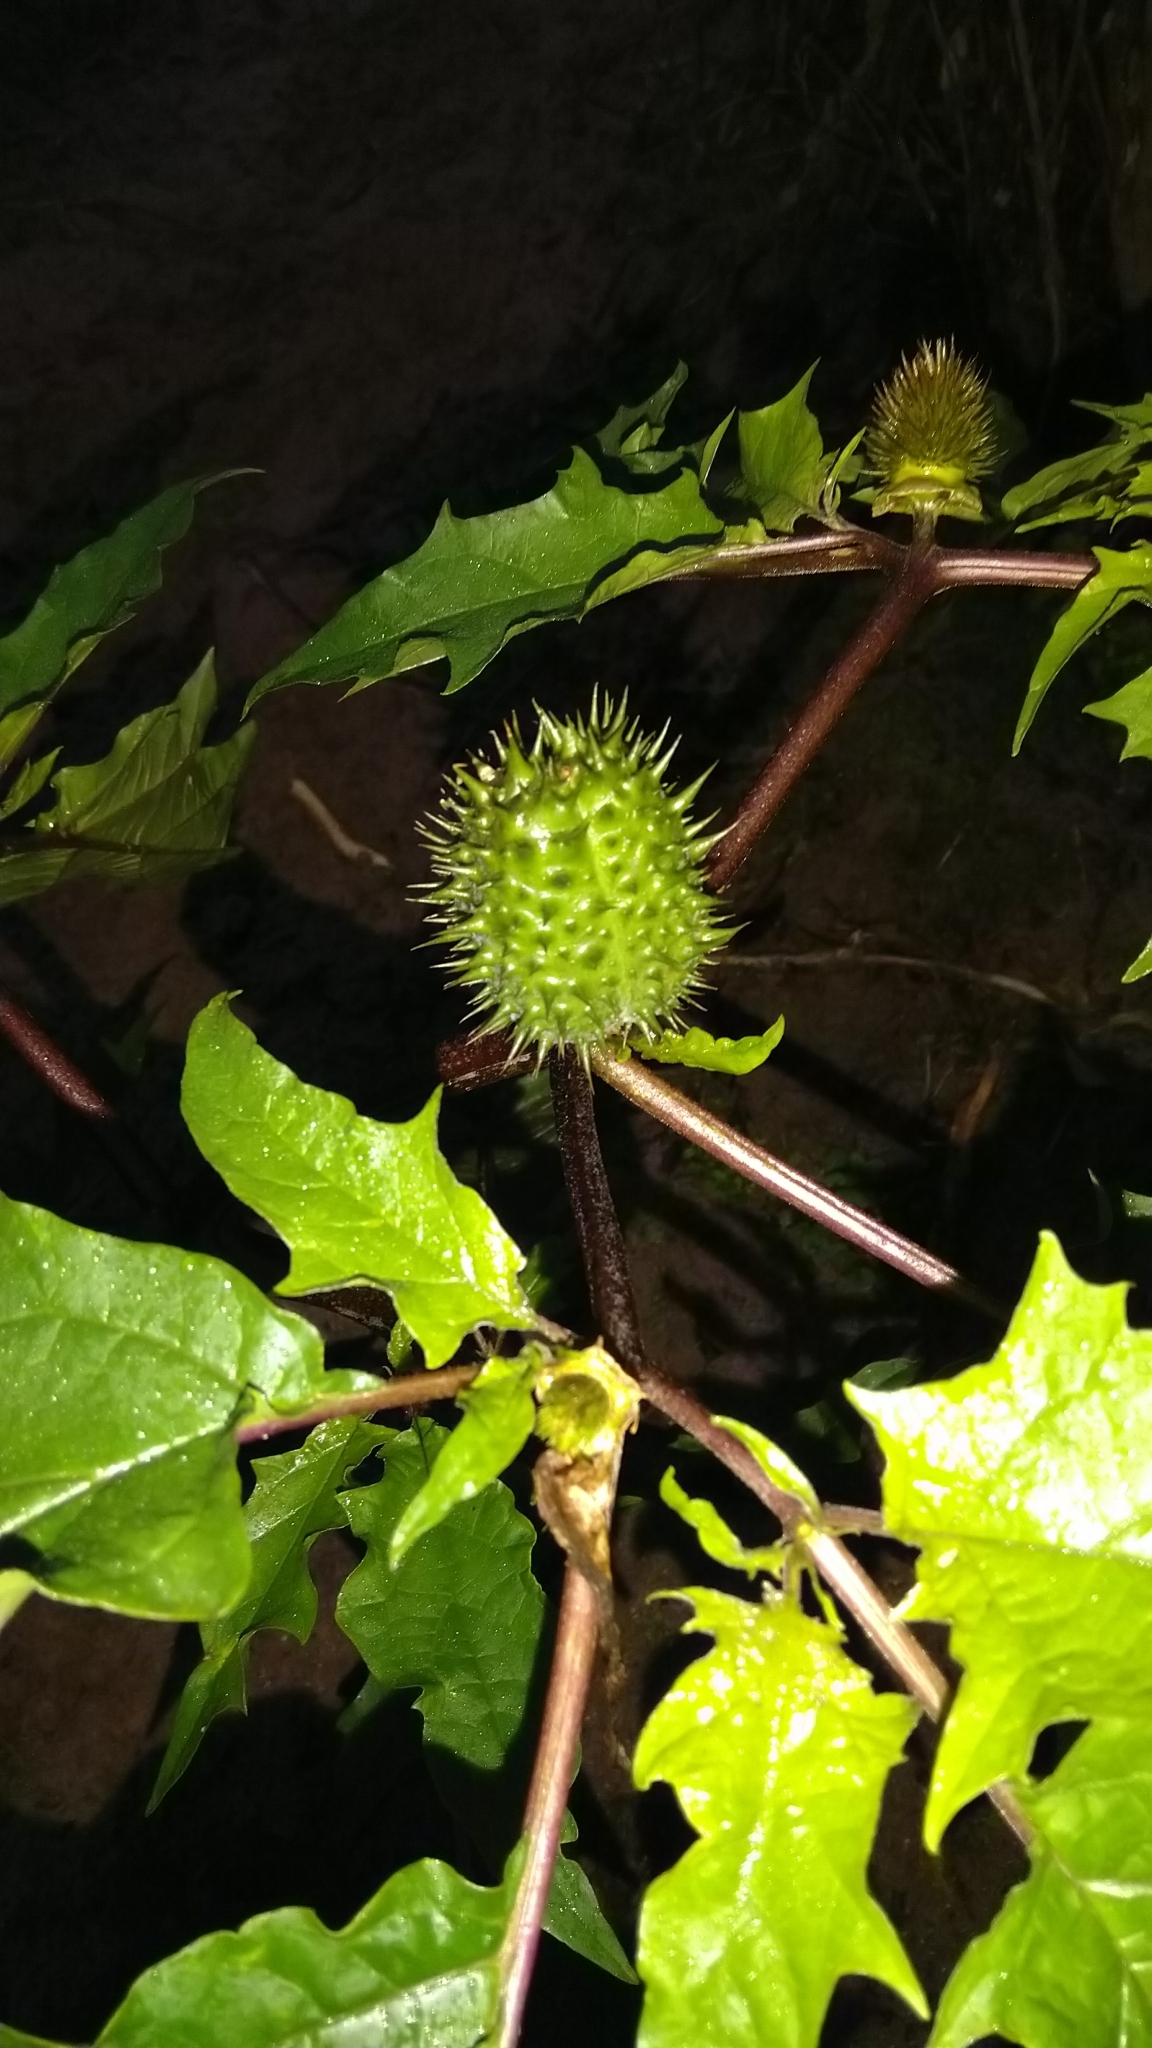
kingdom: Plantae
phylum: Tracheophyta
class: Magnoliopsida
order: Solanales
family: Solanaceae
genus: Datura
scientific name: Datura stramonium
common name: Thorn-apple
